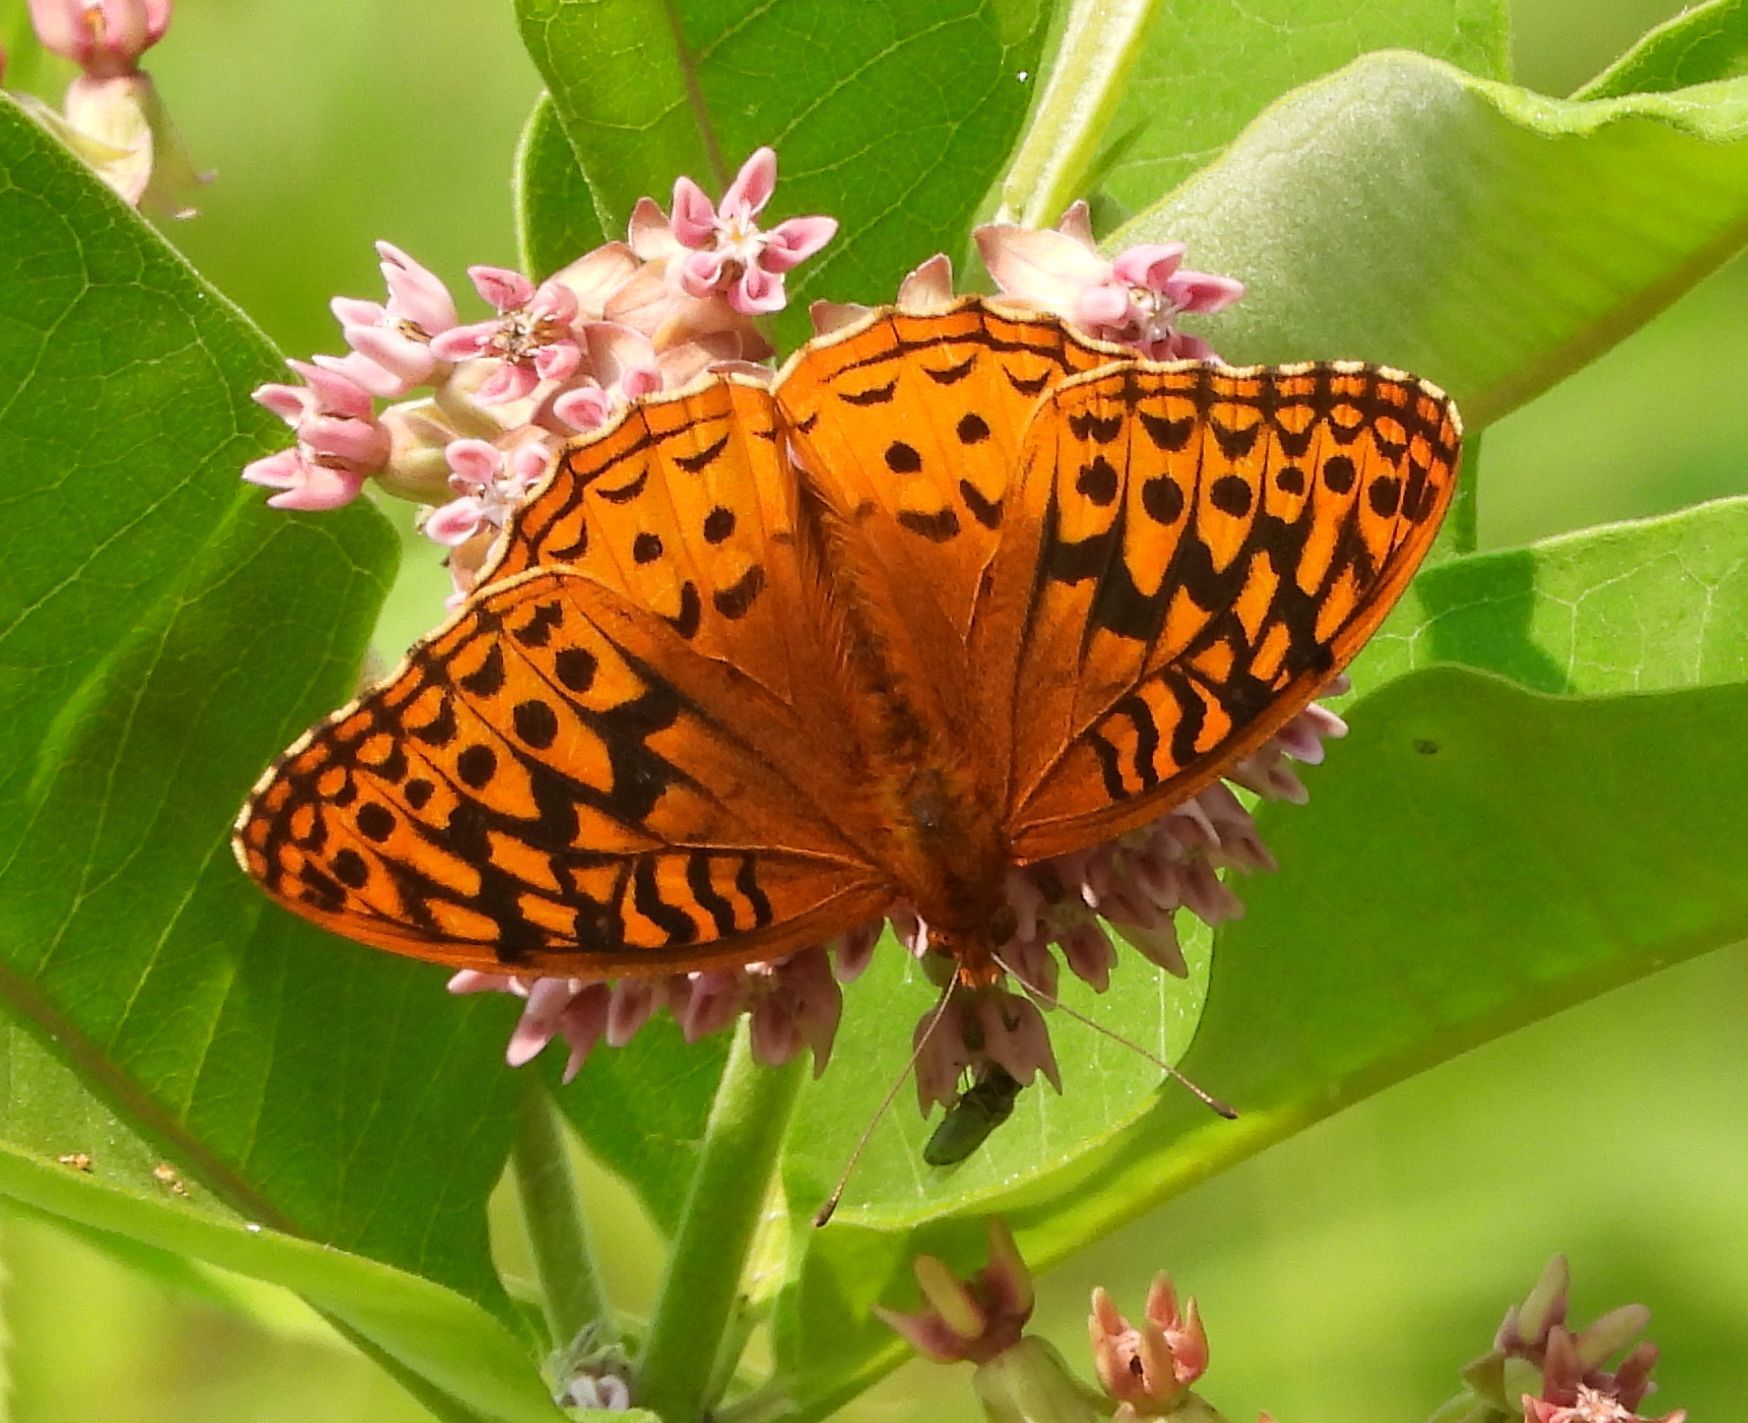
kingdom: Animalia
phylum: Arthropoda
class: Insecta
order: Lepidoptera
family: Nymphalidae
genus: Speyeria
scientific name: Speyeria cybele
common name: Great spangled fritillary
